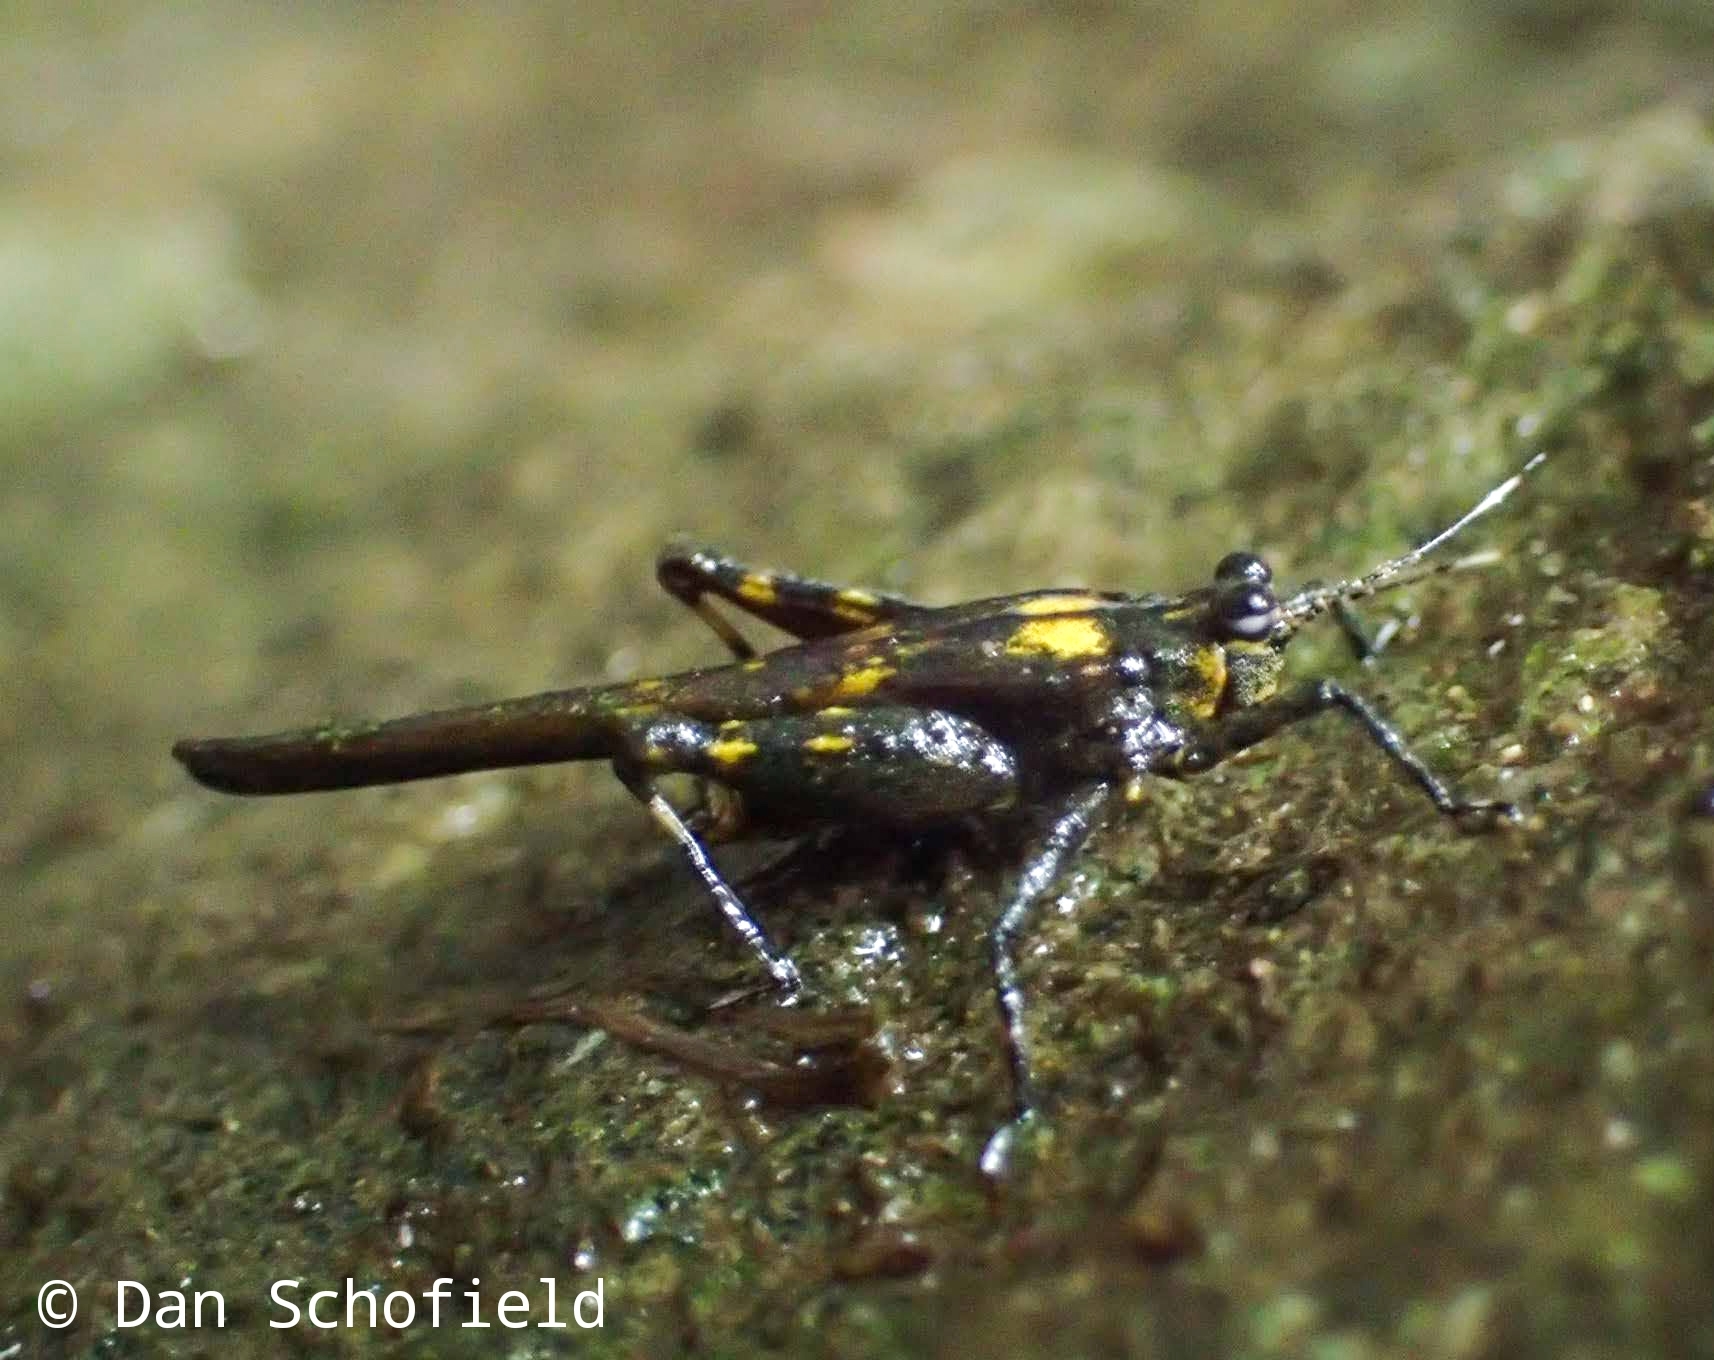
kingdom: Animalia
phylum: Arthropoda
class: Insecta
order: Orthoptera
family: Tetrigidae
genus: Tagaloscelimena
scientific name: Tagaloscelimena aurivillii
